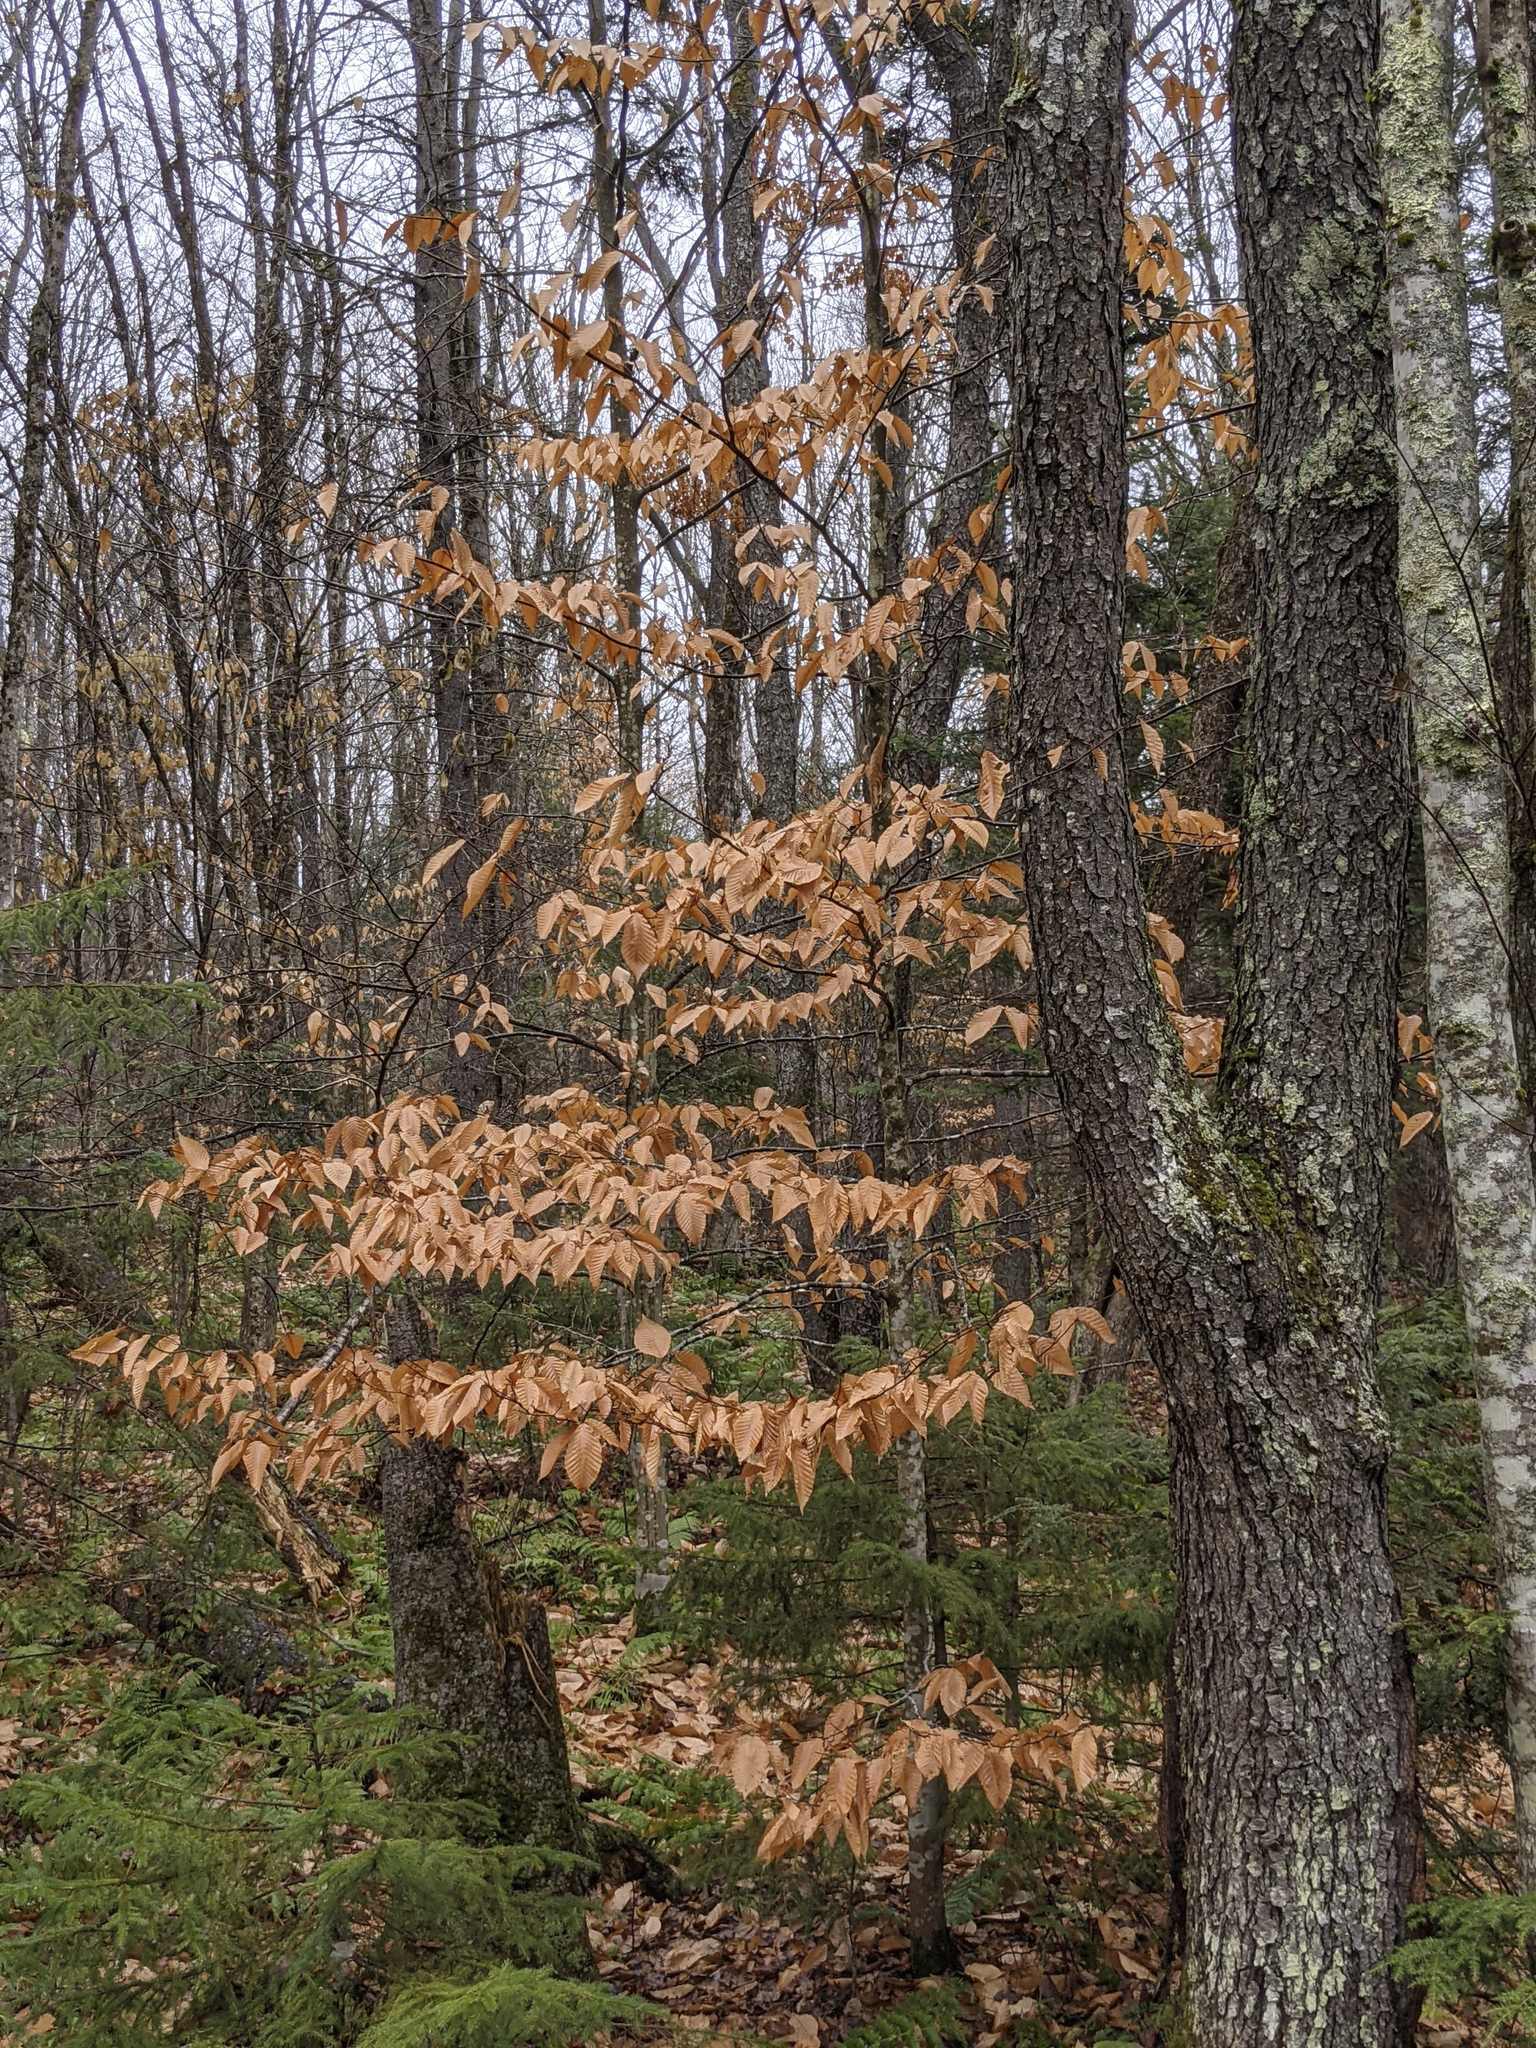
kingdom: Plantae
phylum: Tracheophyta
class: Magnoliopsida
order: Fagales
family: Fagaceae
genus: Fagus
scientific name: Fagus grandifolia
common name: American beech
